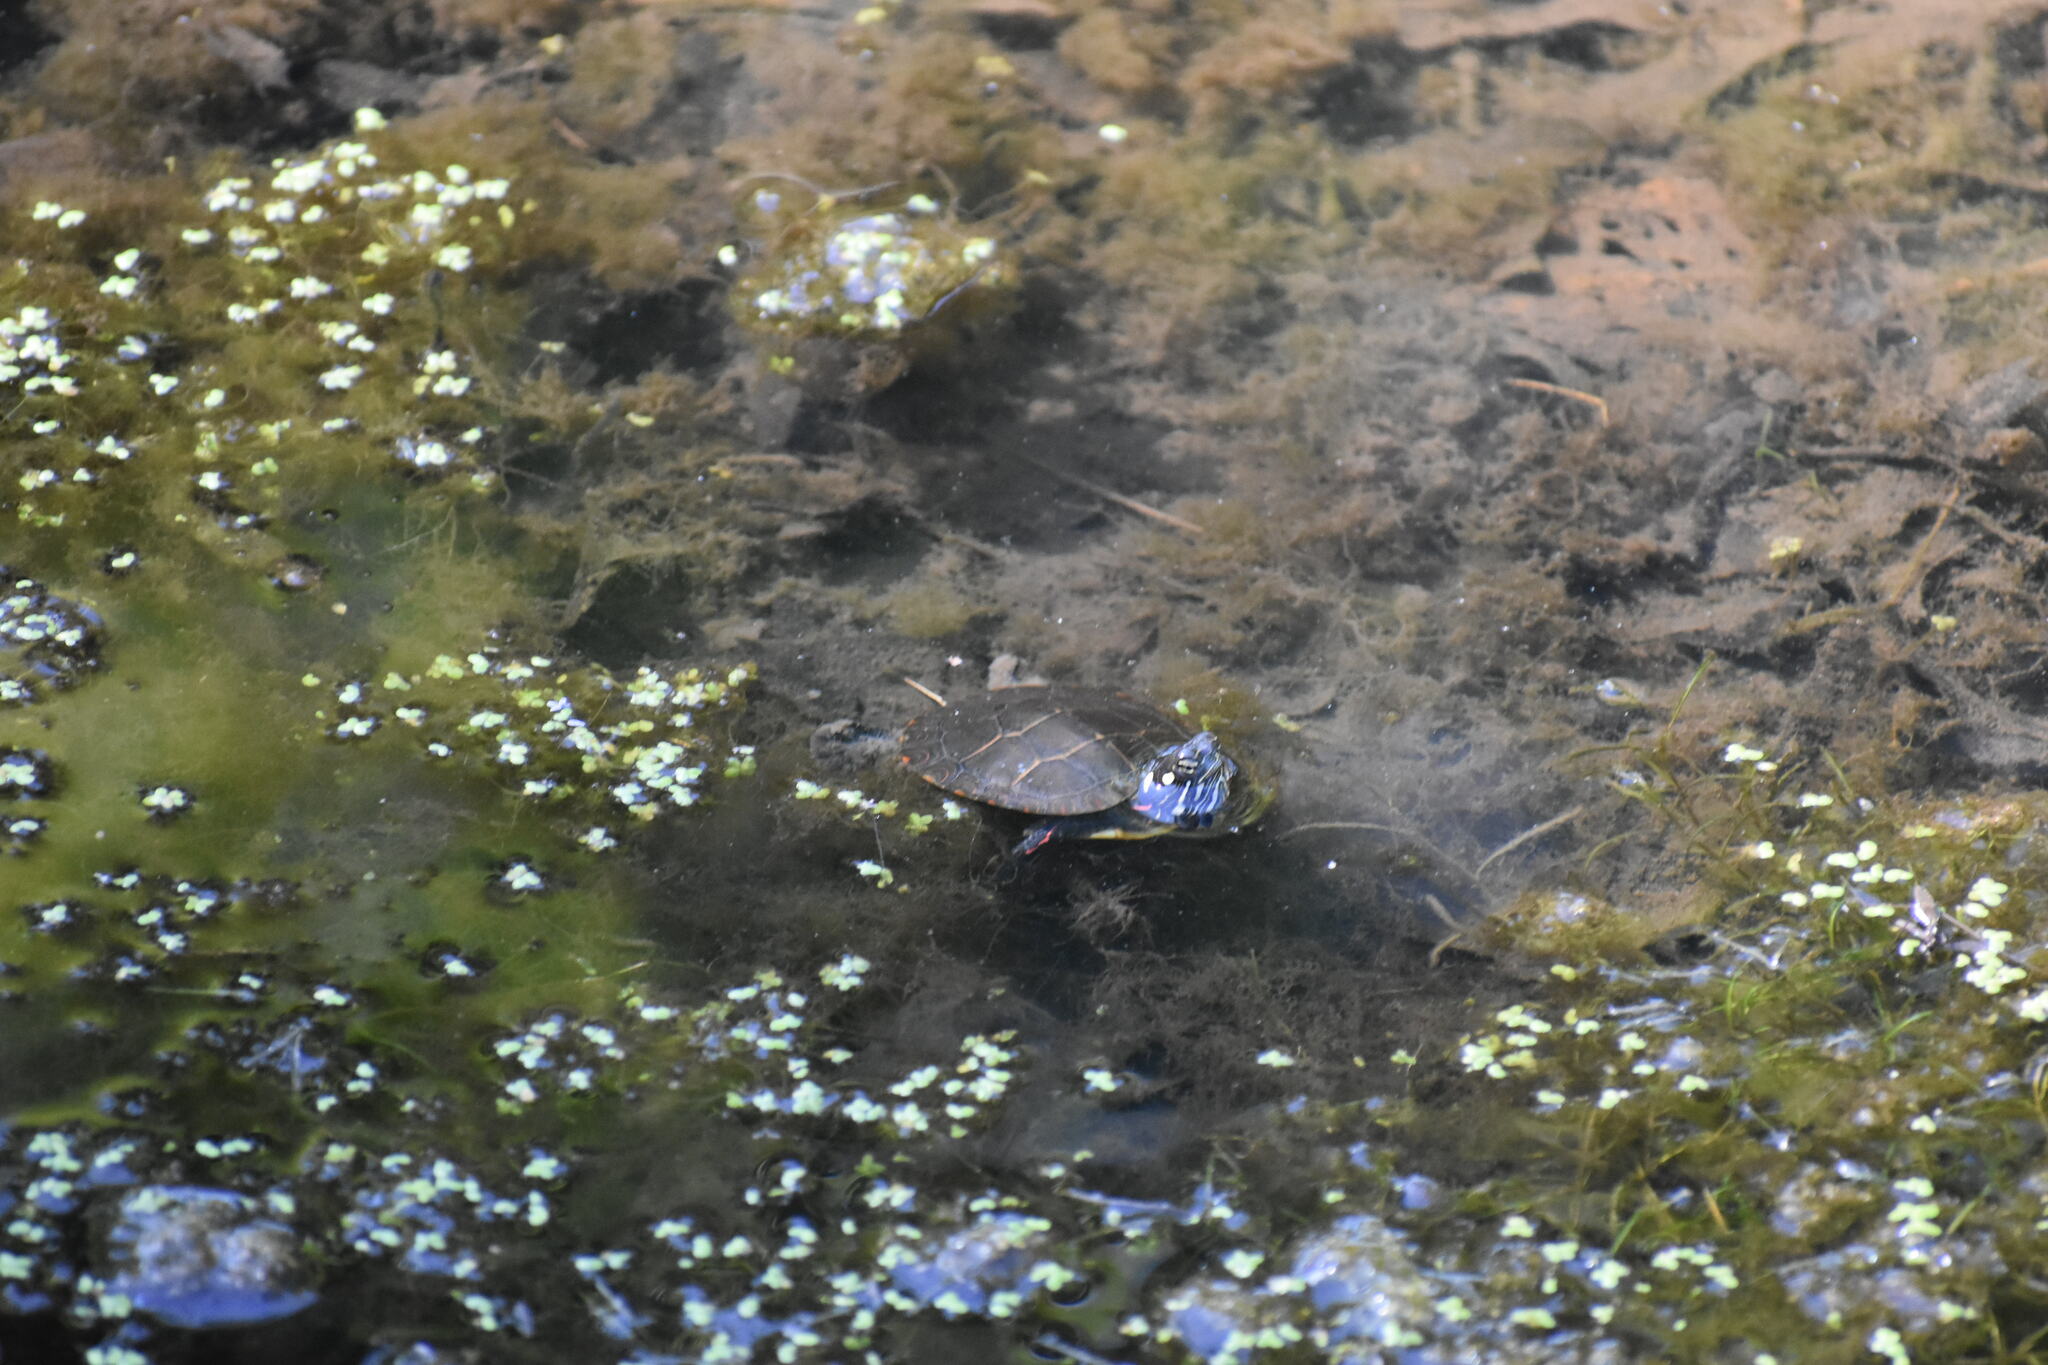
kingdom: Animalia
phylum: Chordata
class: Testudines
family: Emydidae
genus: Chrysemys
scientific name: Chrysemys picta
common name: Painted turtle
